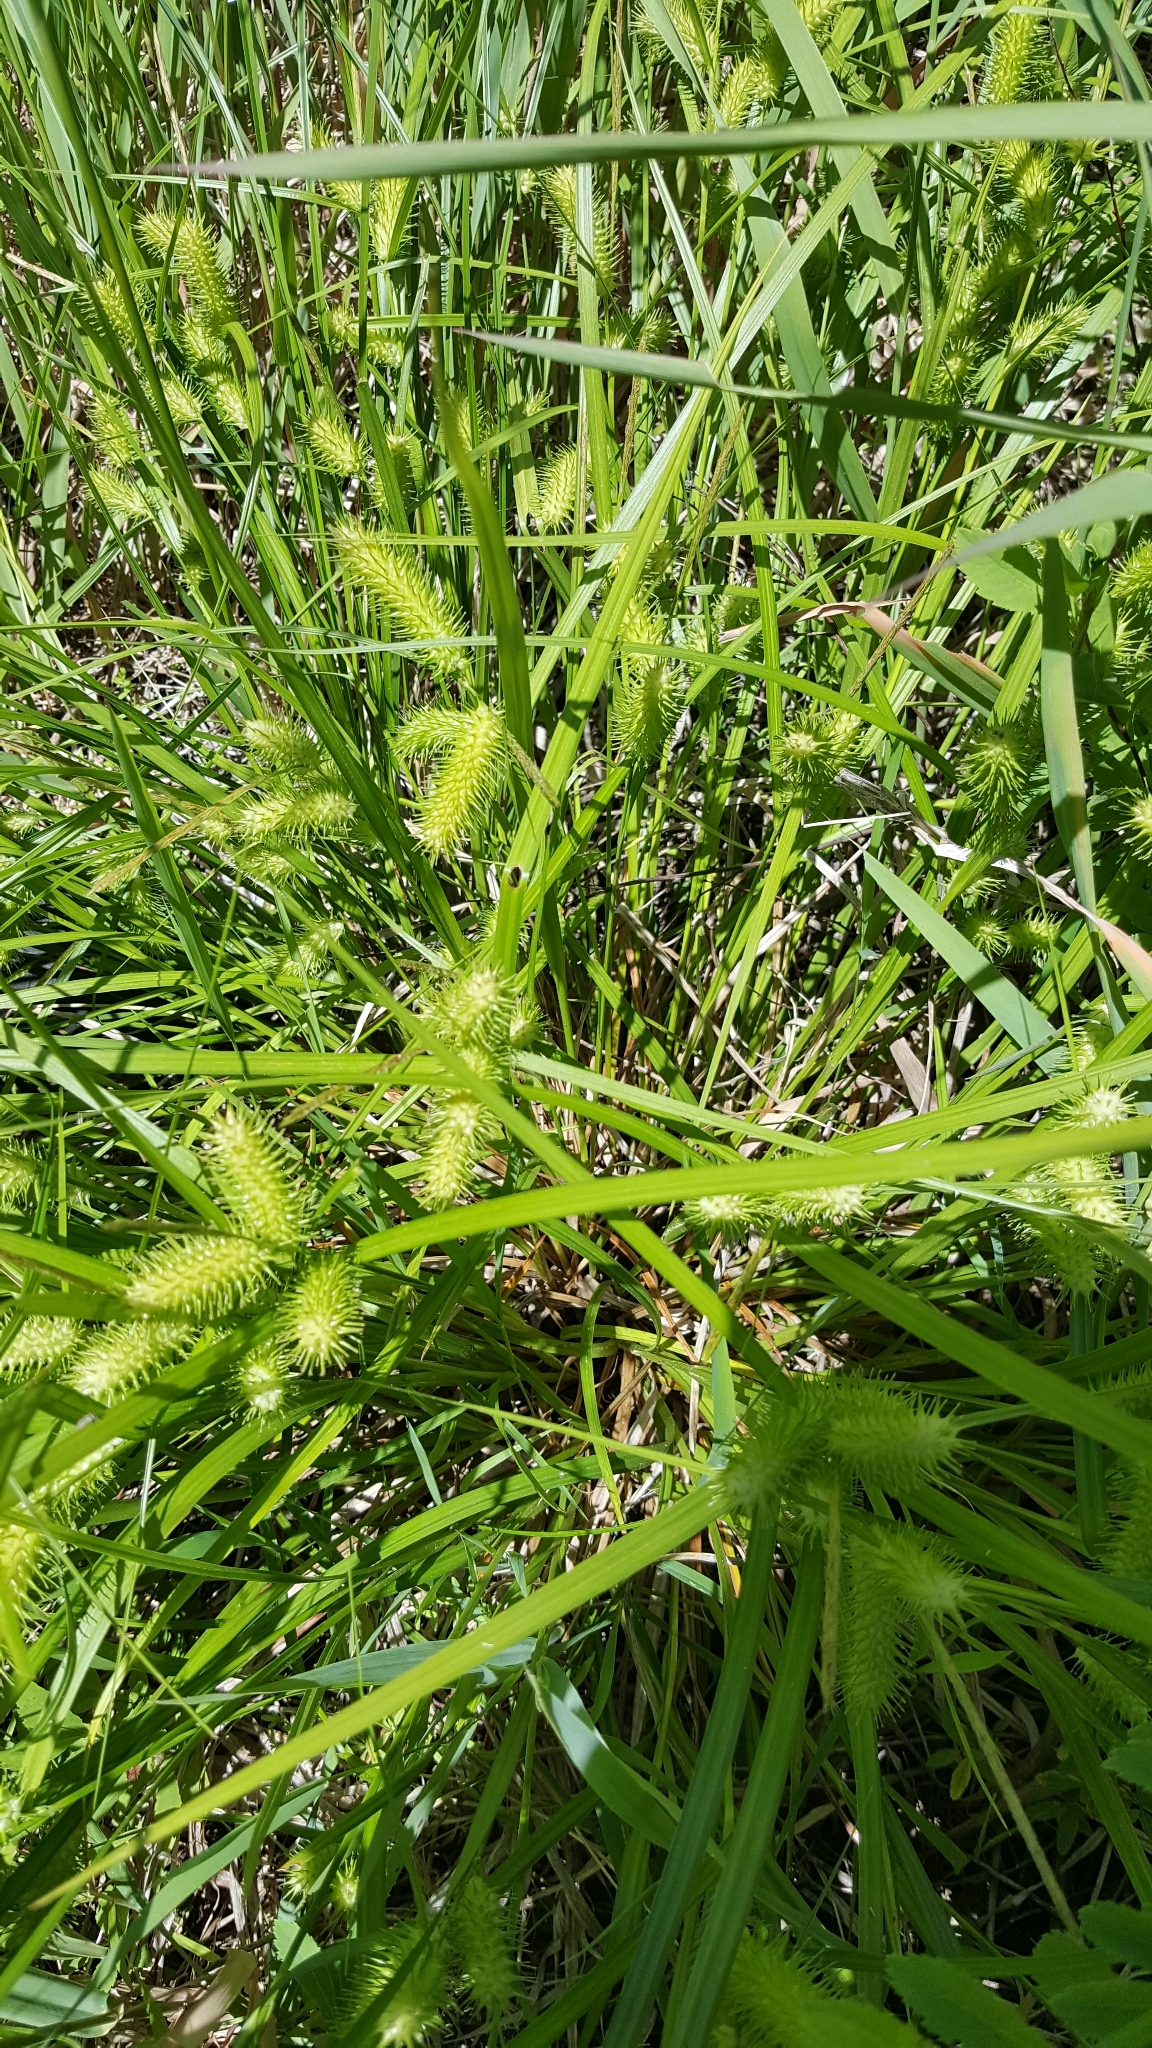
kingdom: Plantae
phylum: Tracheophyta
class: Liliopsida
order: Poales
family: Cyperaceae
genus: Carex
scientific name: Carex lurida
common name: Sallow sedge
